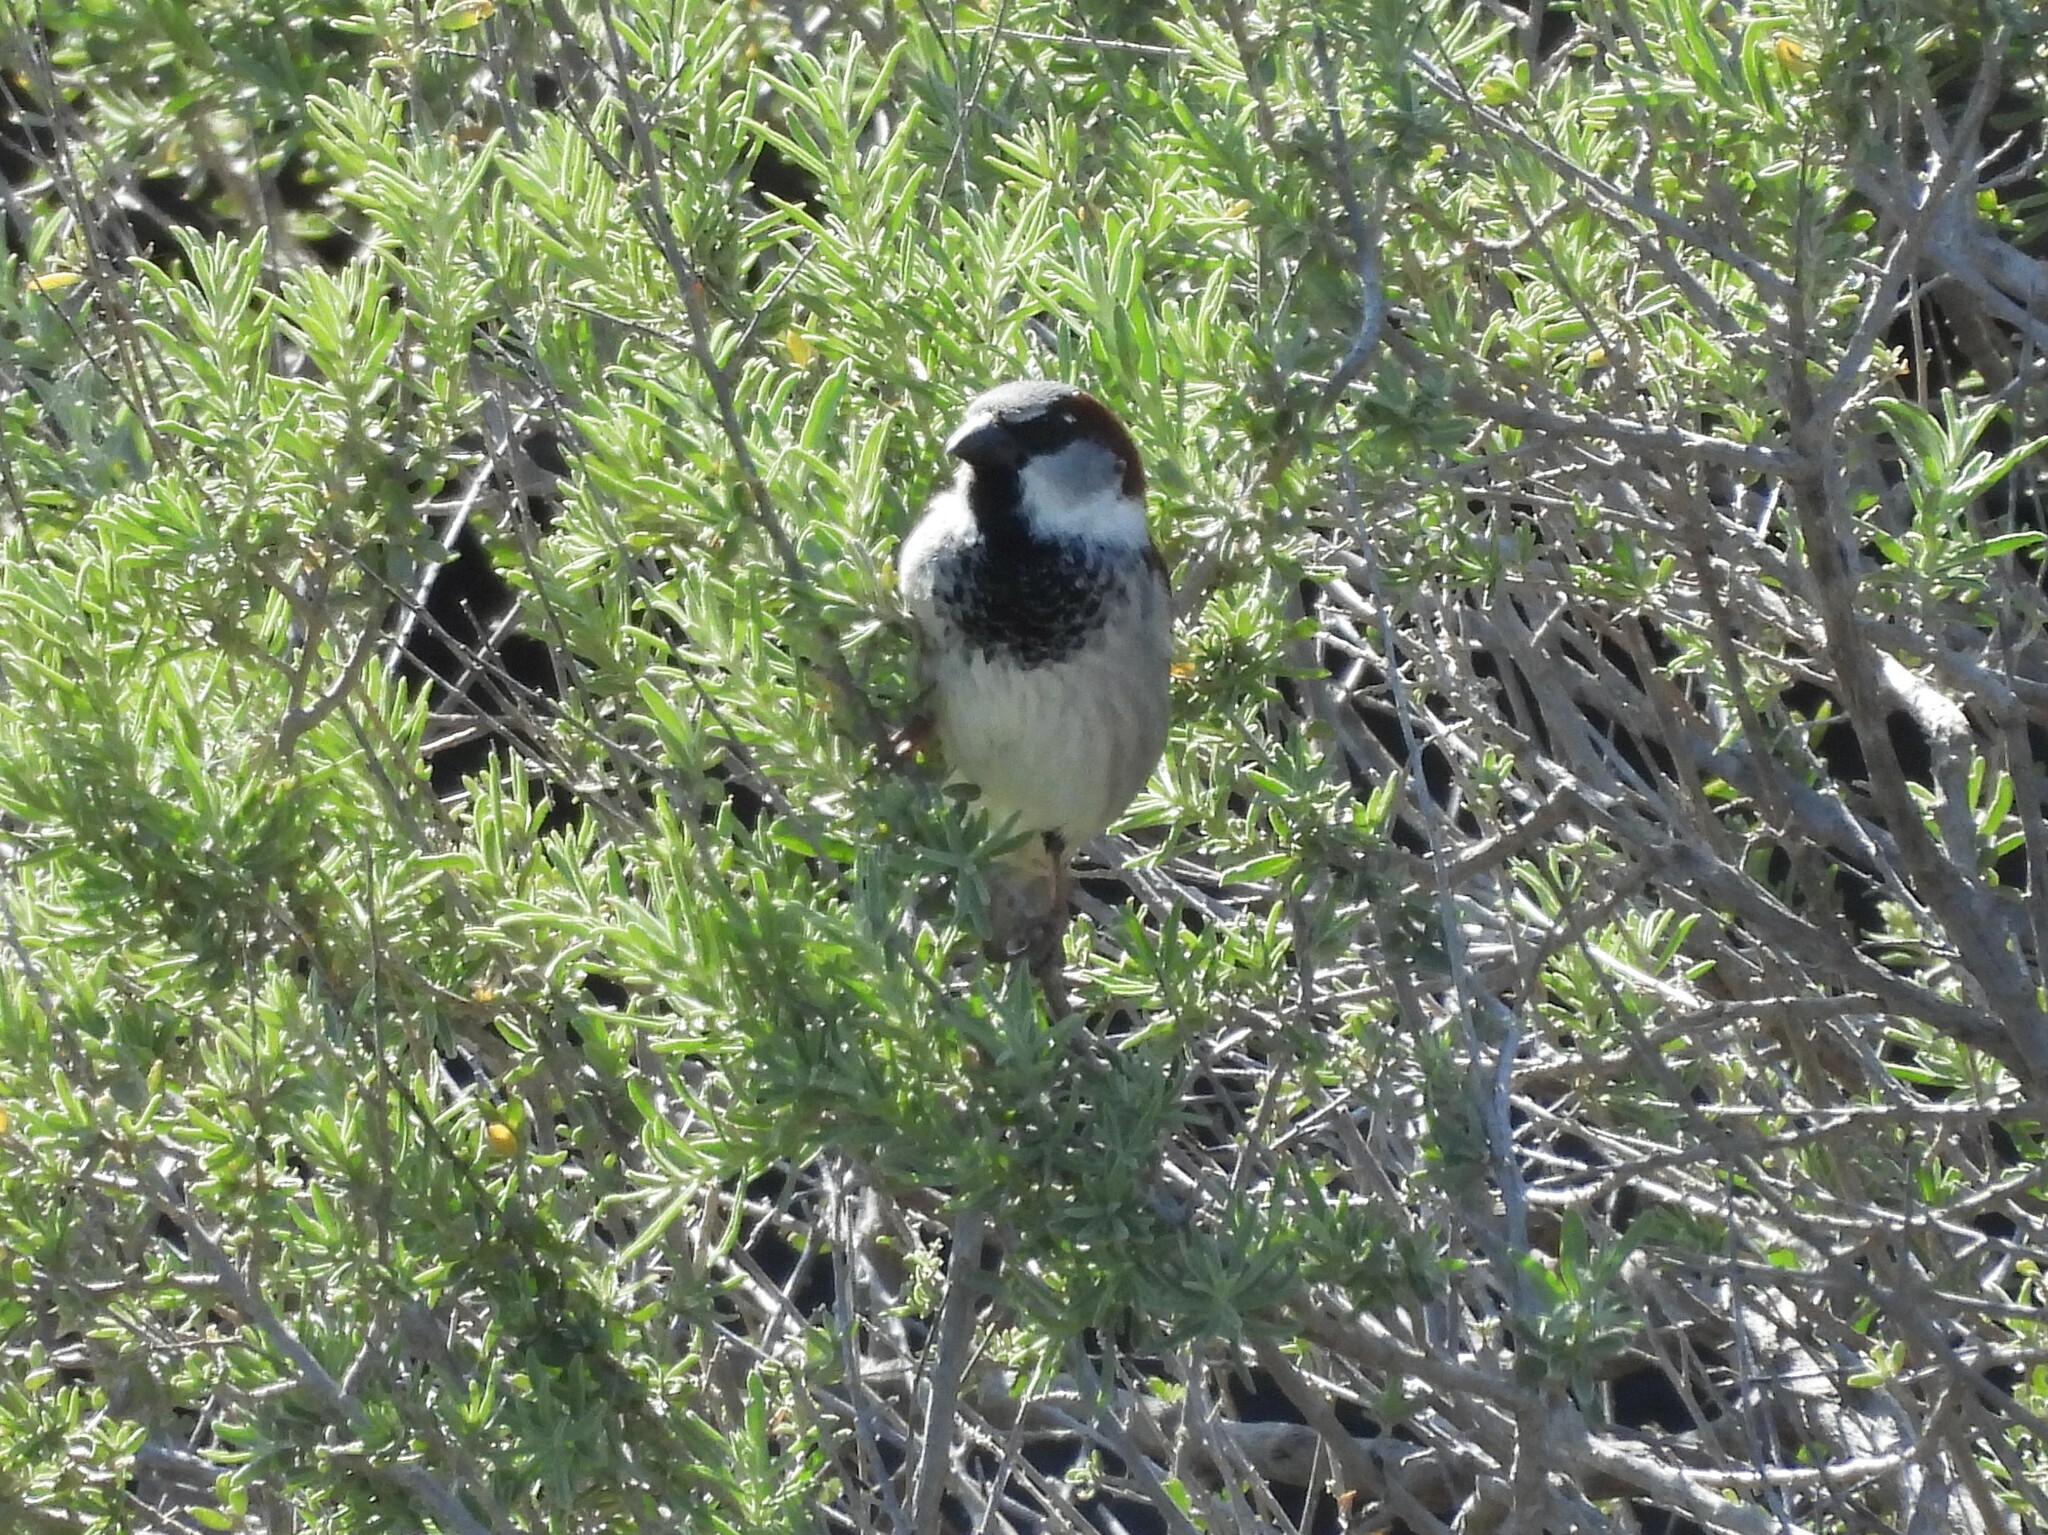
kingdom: Animalia
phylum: Chordata
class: Aves
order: Passeriformes
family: Passeridae
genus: Passer
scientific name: Passer domesticus
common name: House sparrow
